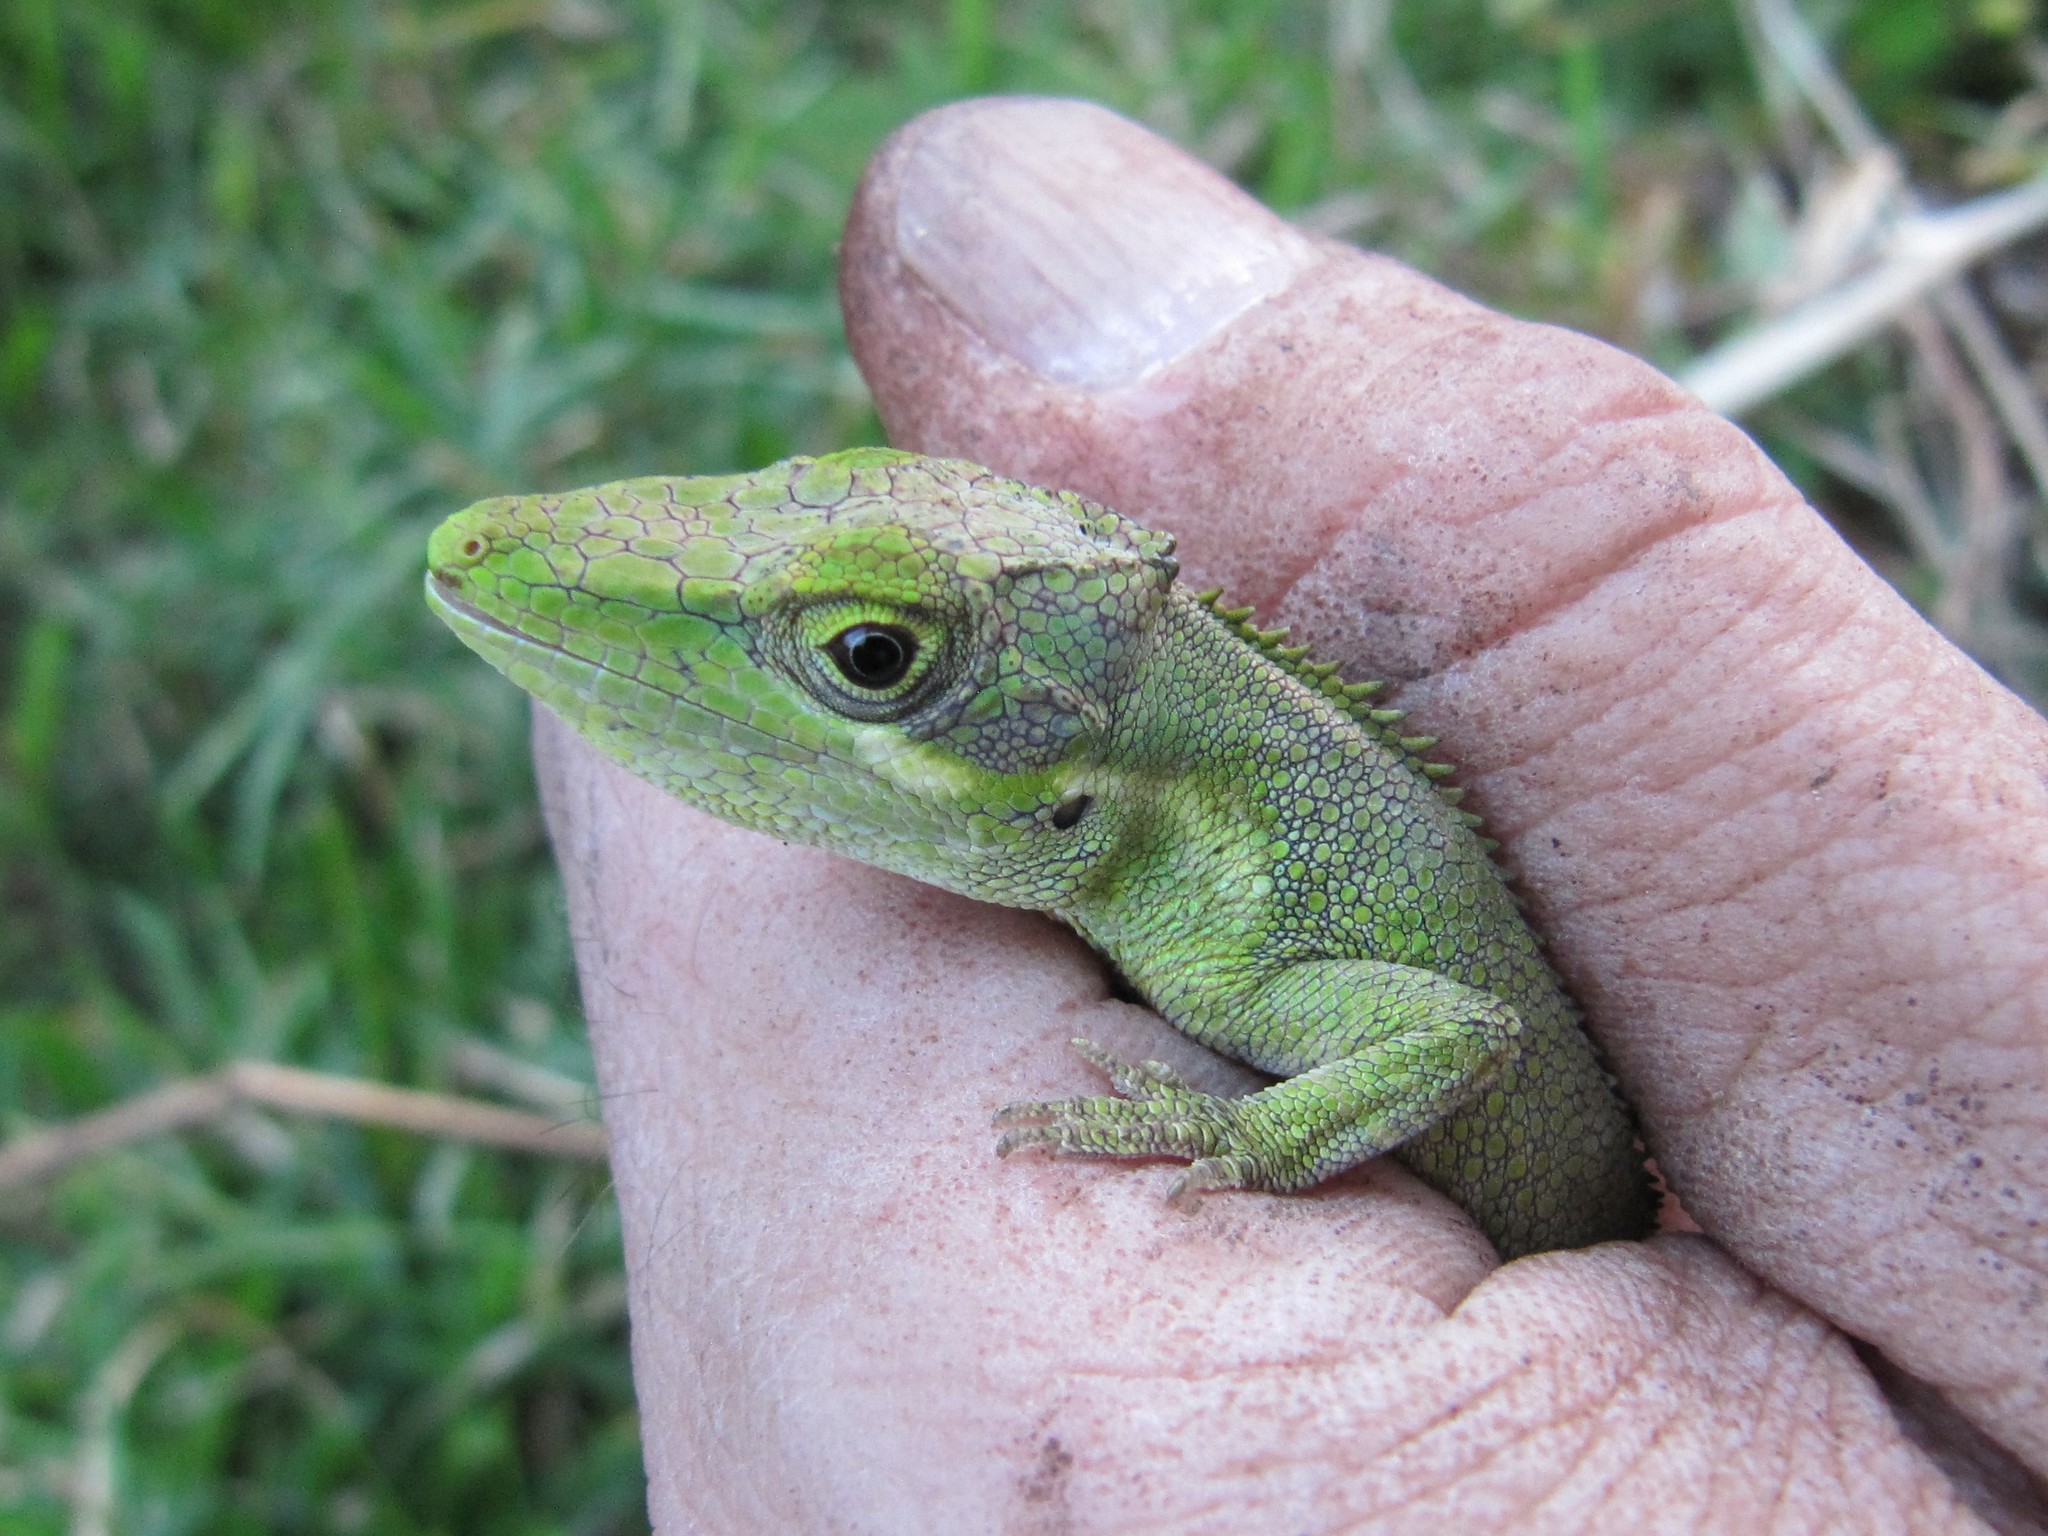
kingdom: Animalia
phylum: Chordata
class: Squamata
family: Dactyloidae
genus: Anolis
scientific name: Anolis heterodermus
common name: Flat andes anole
